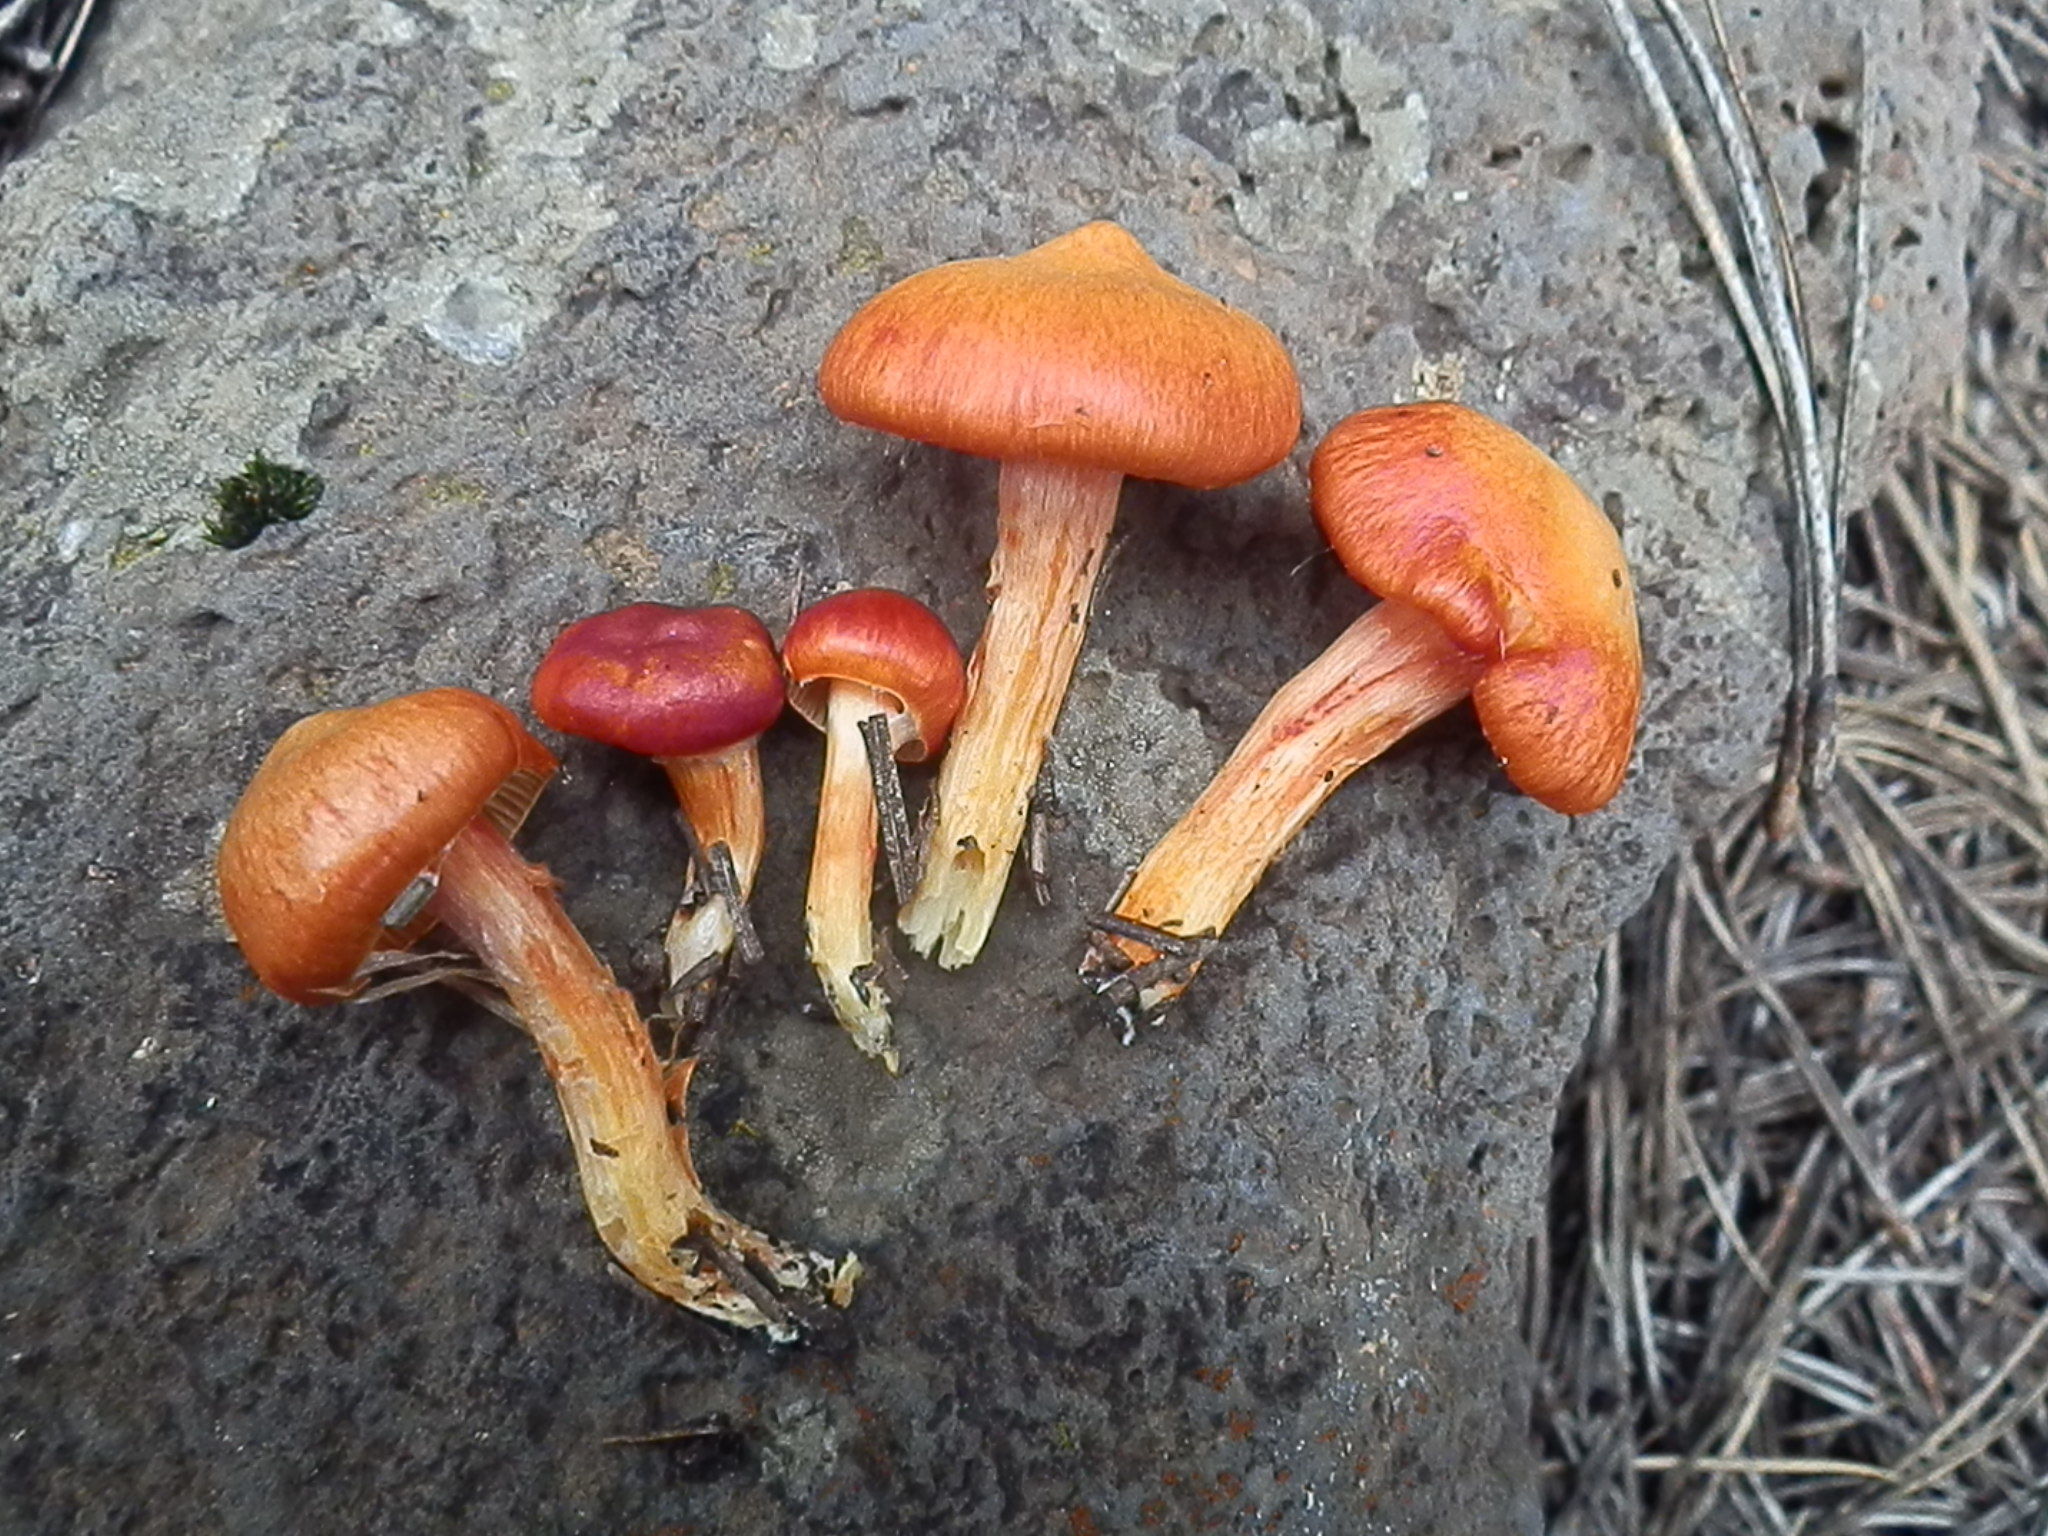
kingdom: Fungi
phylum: Basidiomycota
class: Agaricomycetes
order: Agaricales
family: Hygrophoraceae
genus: Hygrophorus
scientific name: Hygrophorus siccipes
